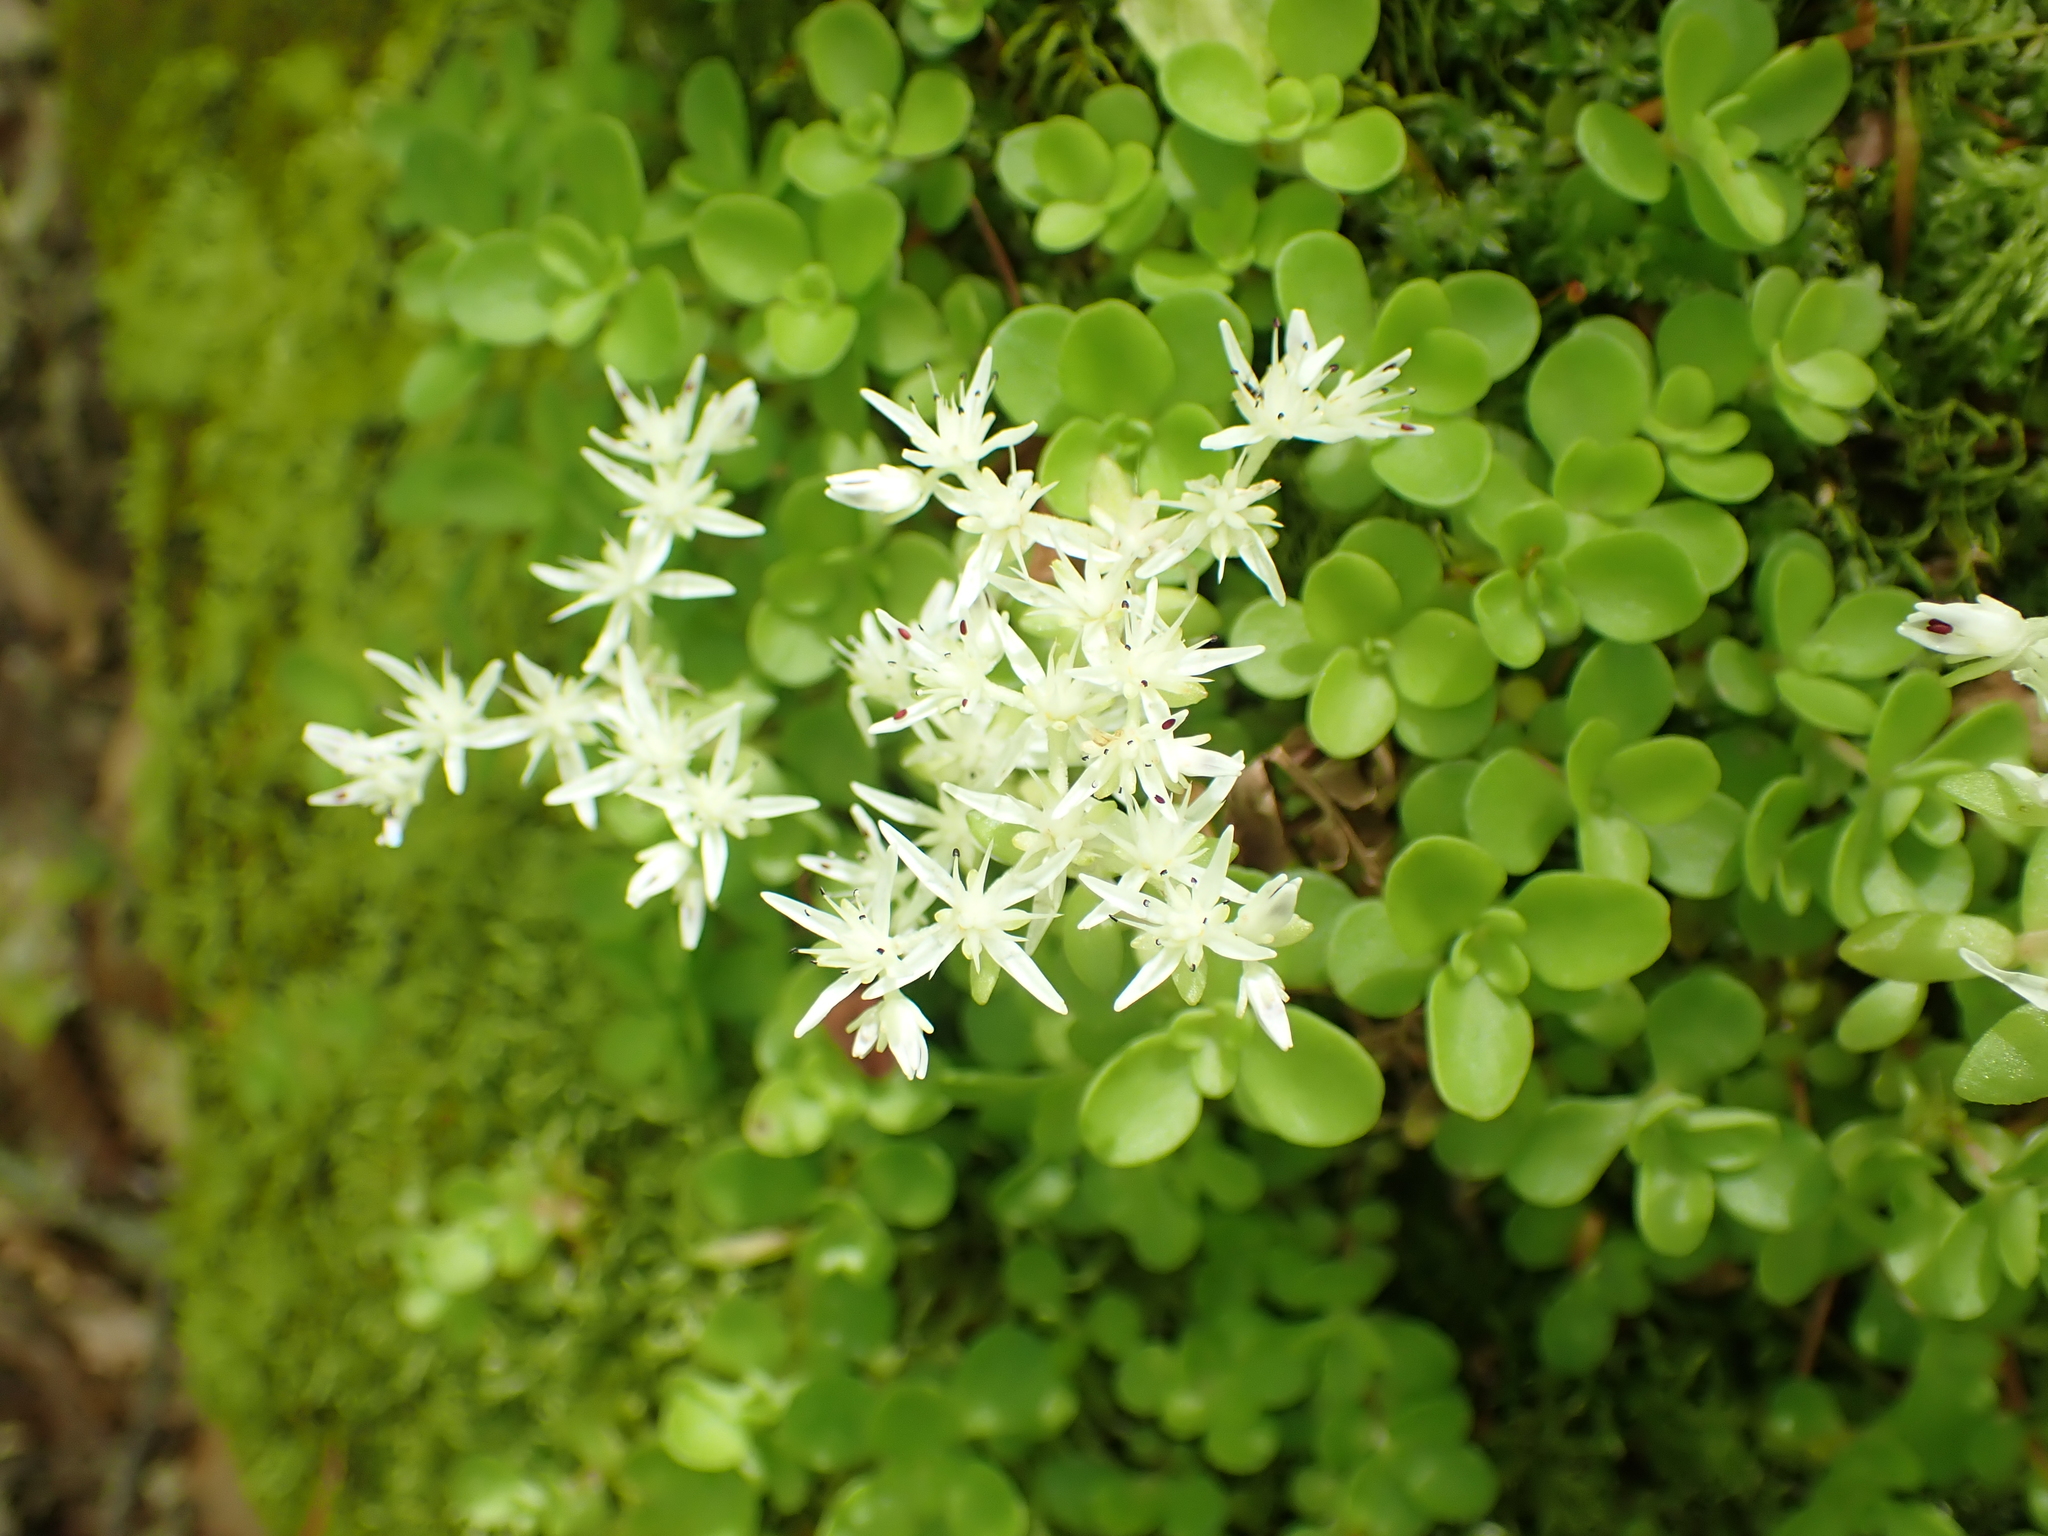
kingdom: Plantae
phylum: Tracheophyta
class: Magnoliopsida
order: Saxifragales
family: Crassulaceae
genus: Sedum
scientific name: Sedum ternatum
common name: Wild stonecrop
